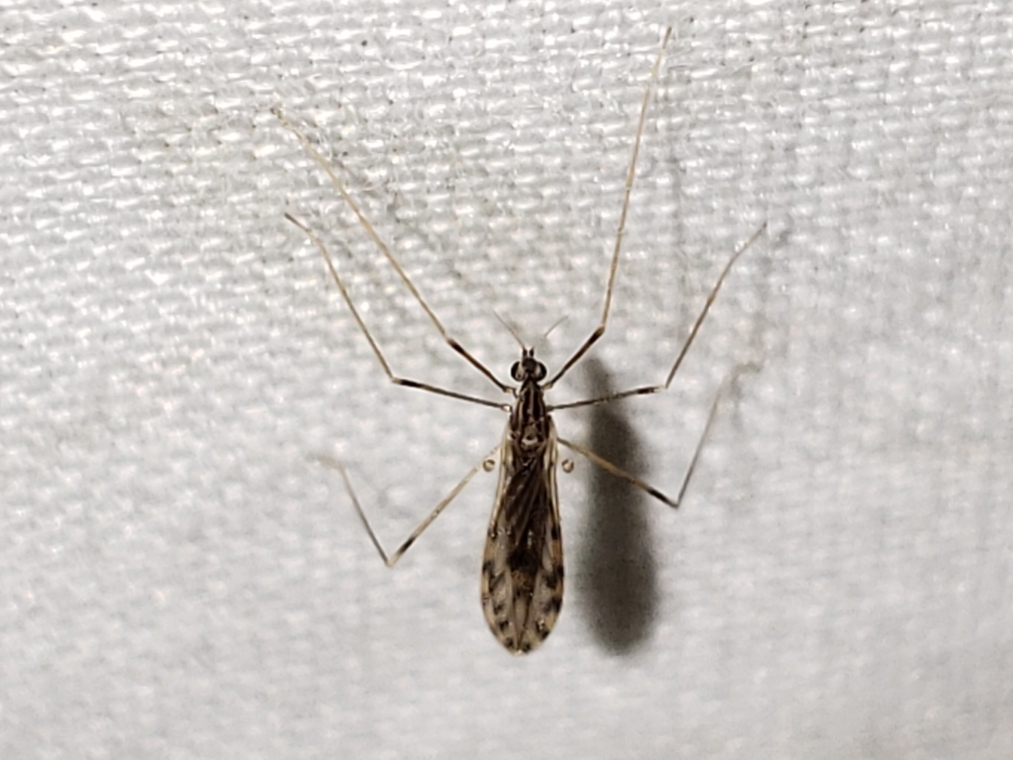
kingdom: Animalia
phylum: Arthropoda
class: Insecta
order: Diptera
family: Limoniidae
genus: Erioptera
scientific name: Erioptera parva
